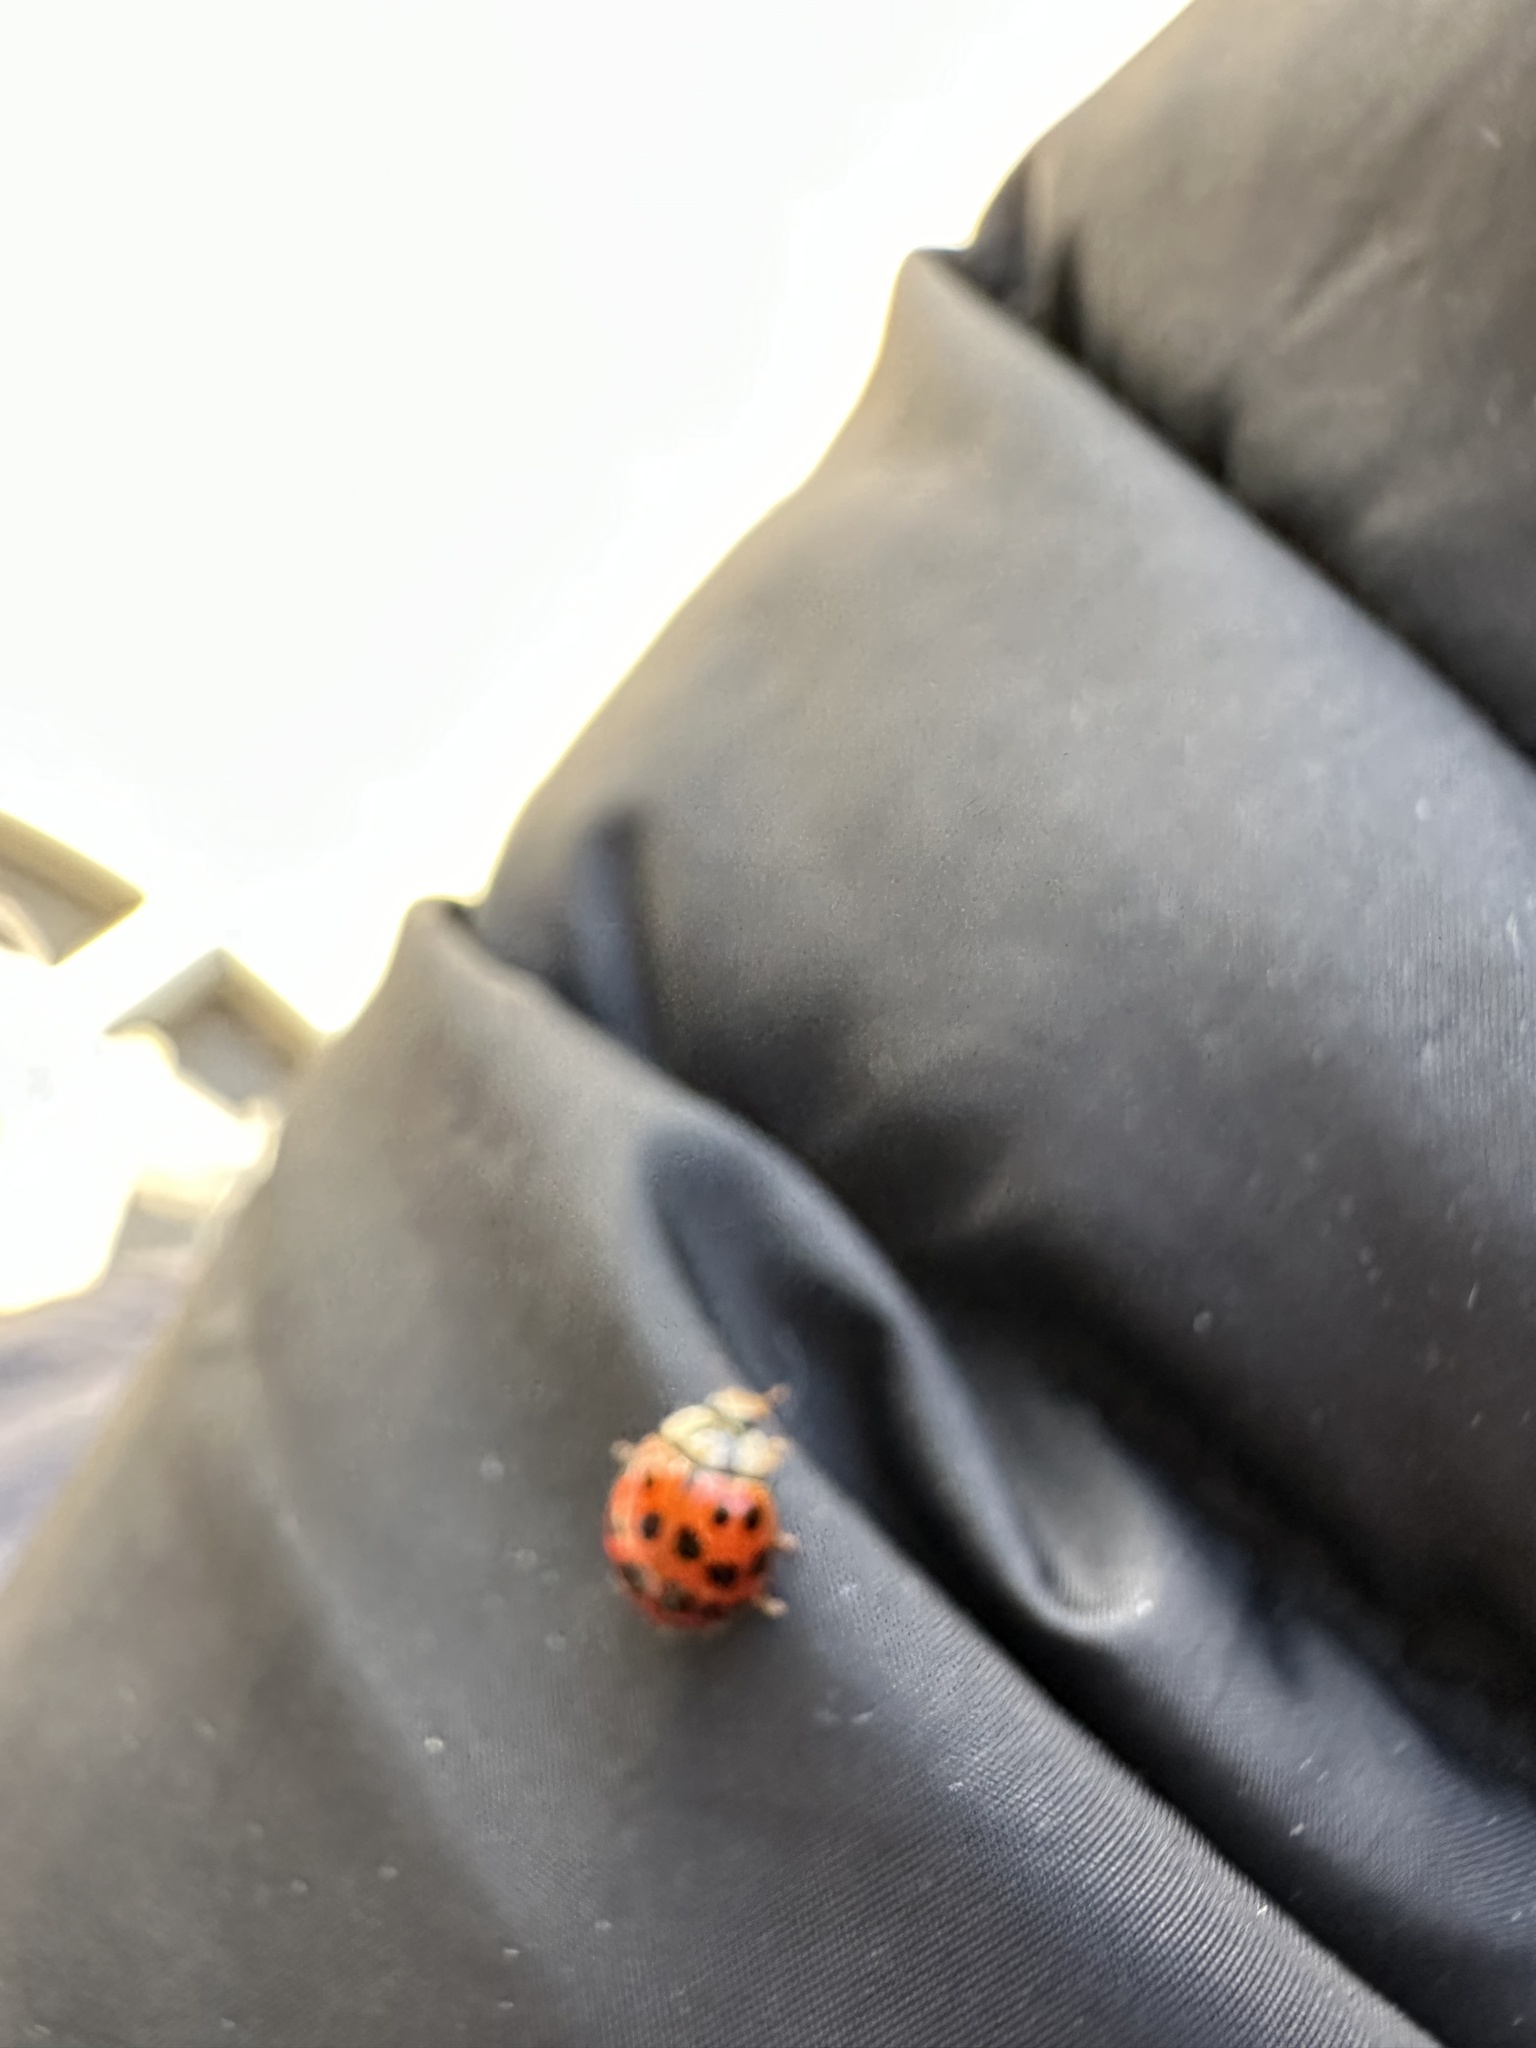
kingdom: Animalia
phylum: Arthropoda
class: Insecta
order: Coleoptera
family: Coccinellidae
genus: Harmonia
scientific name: Harmonia axyridis
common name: Harlequin ladybird
